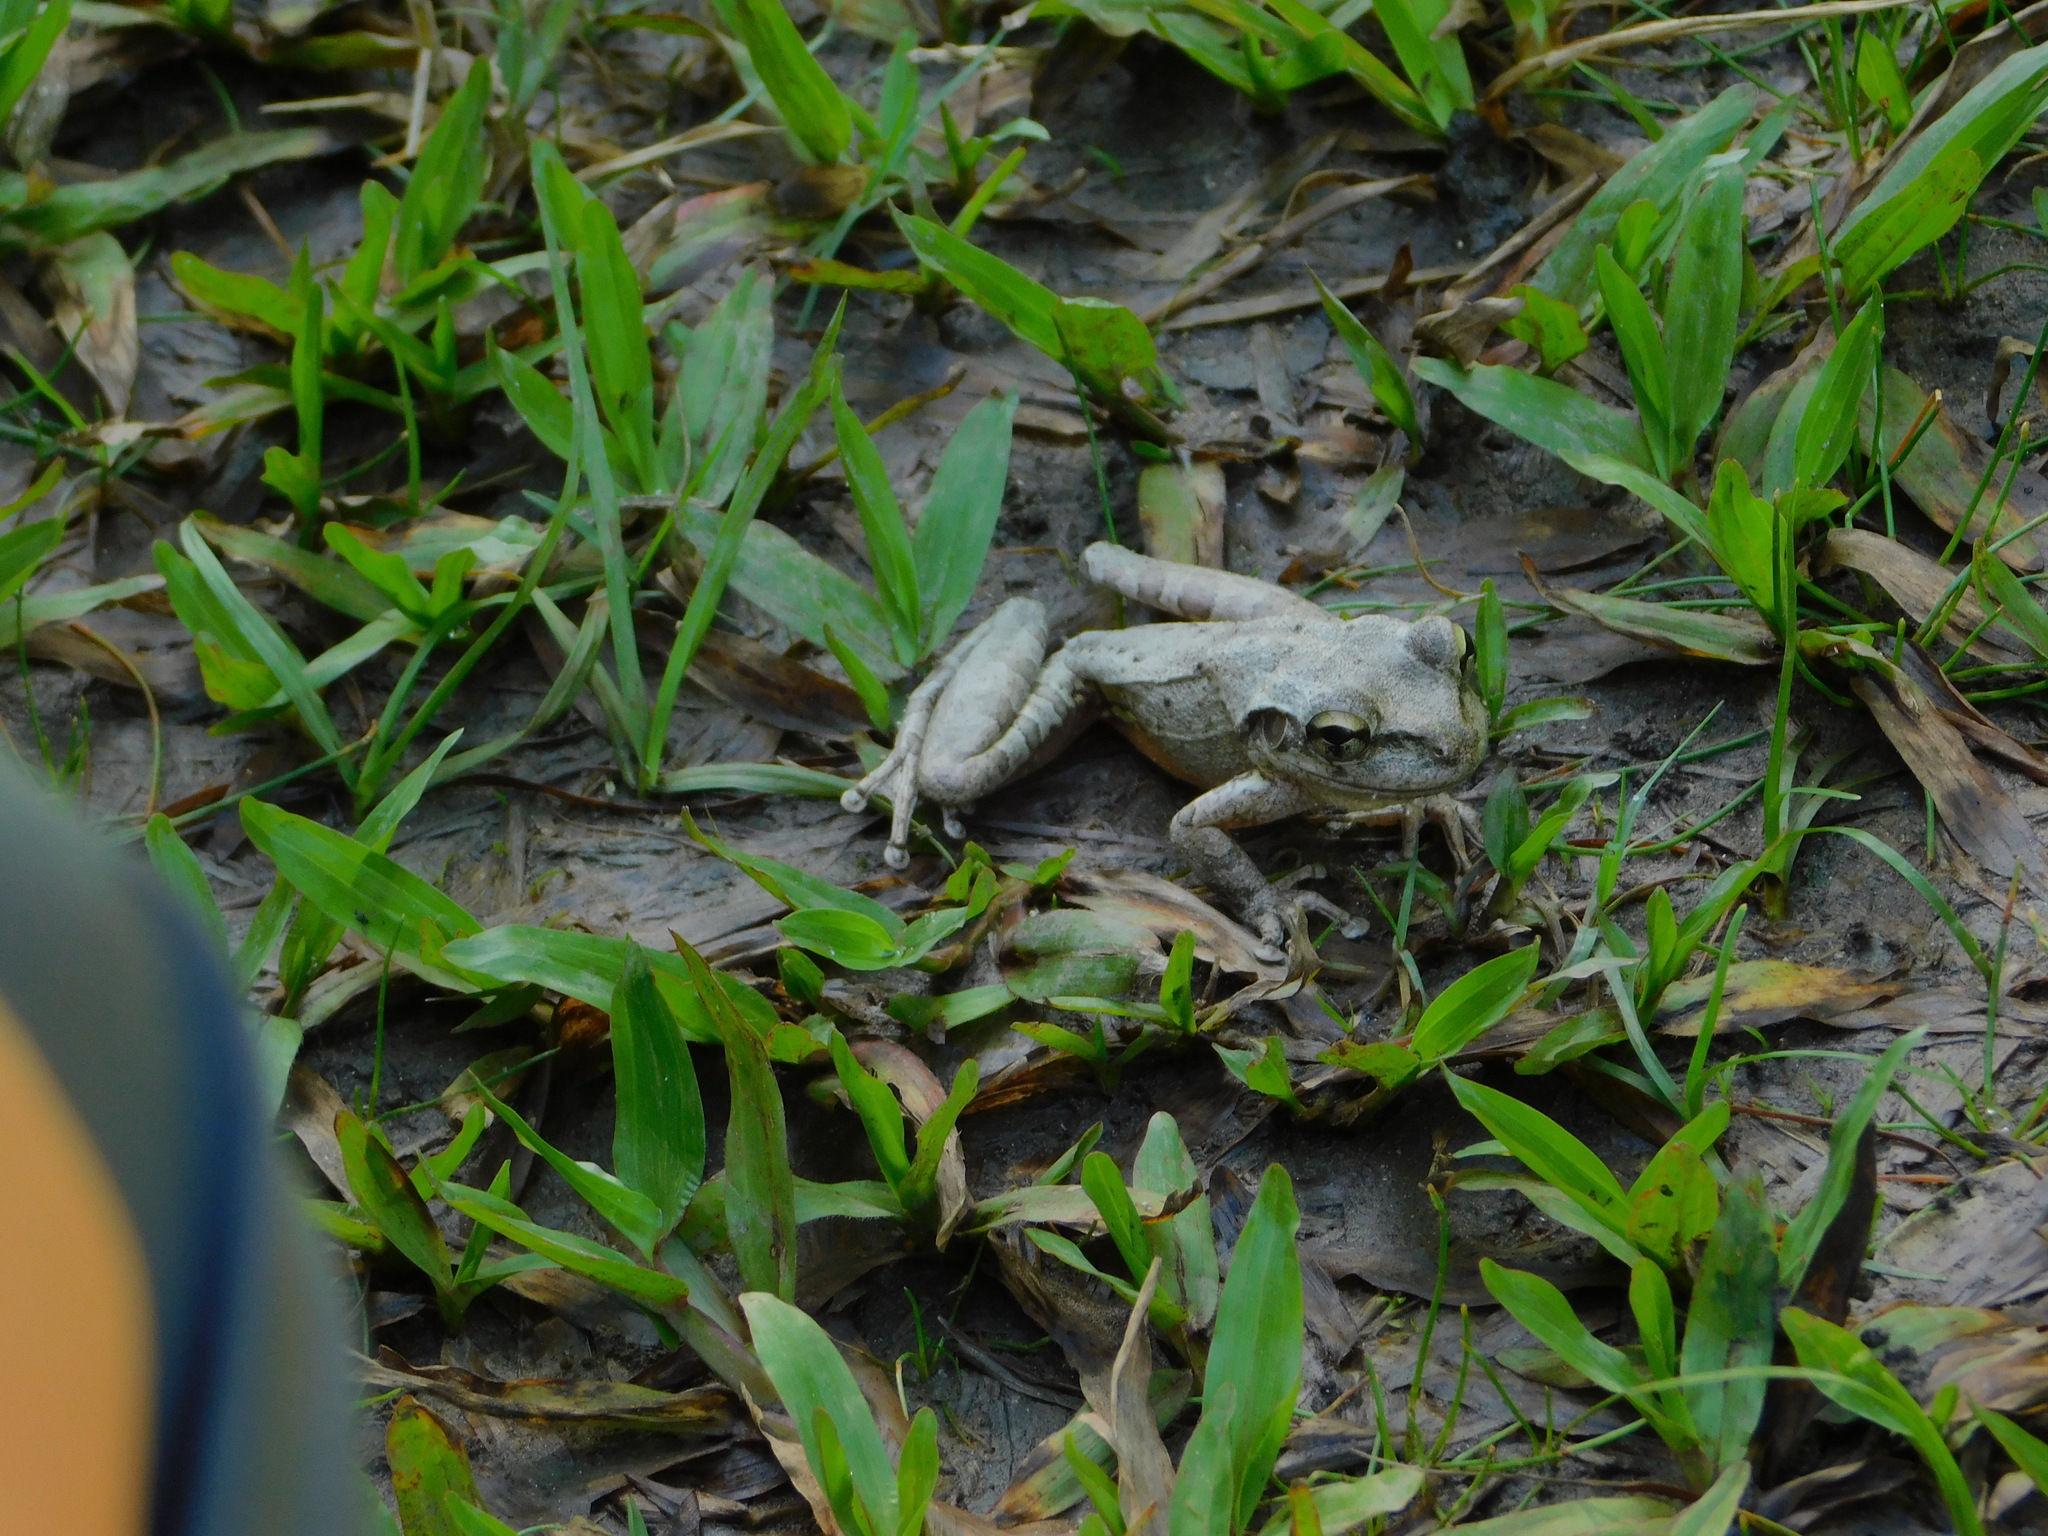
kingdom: Animalia
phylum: Chordata
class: Amphibia
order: Anura
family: Hylidae
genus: Osteopilus
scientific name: Osteopilus septentrionalis
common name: Cuban treefrog
